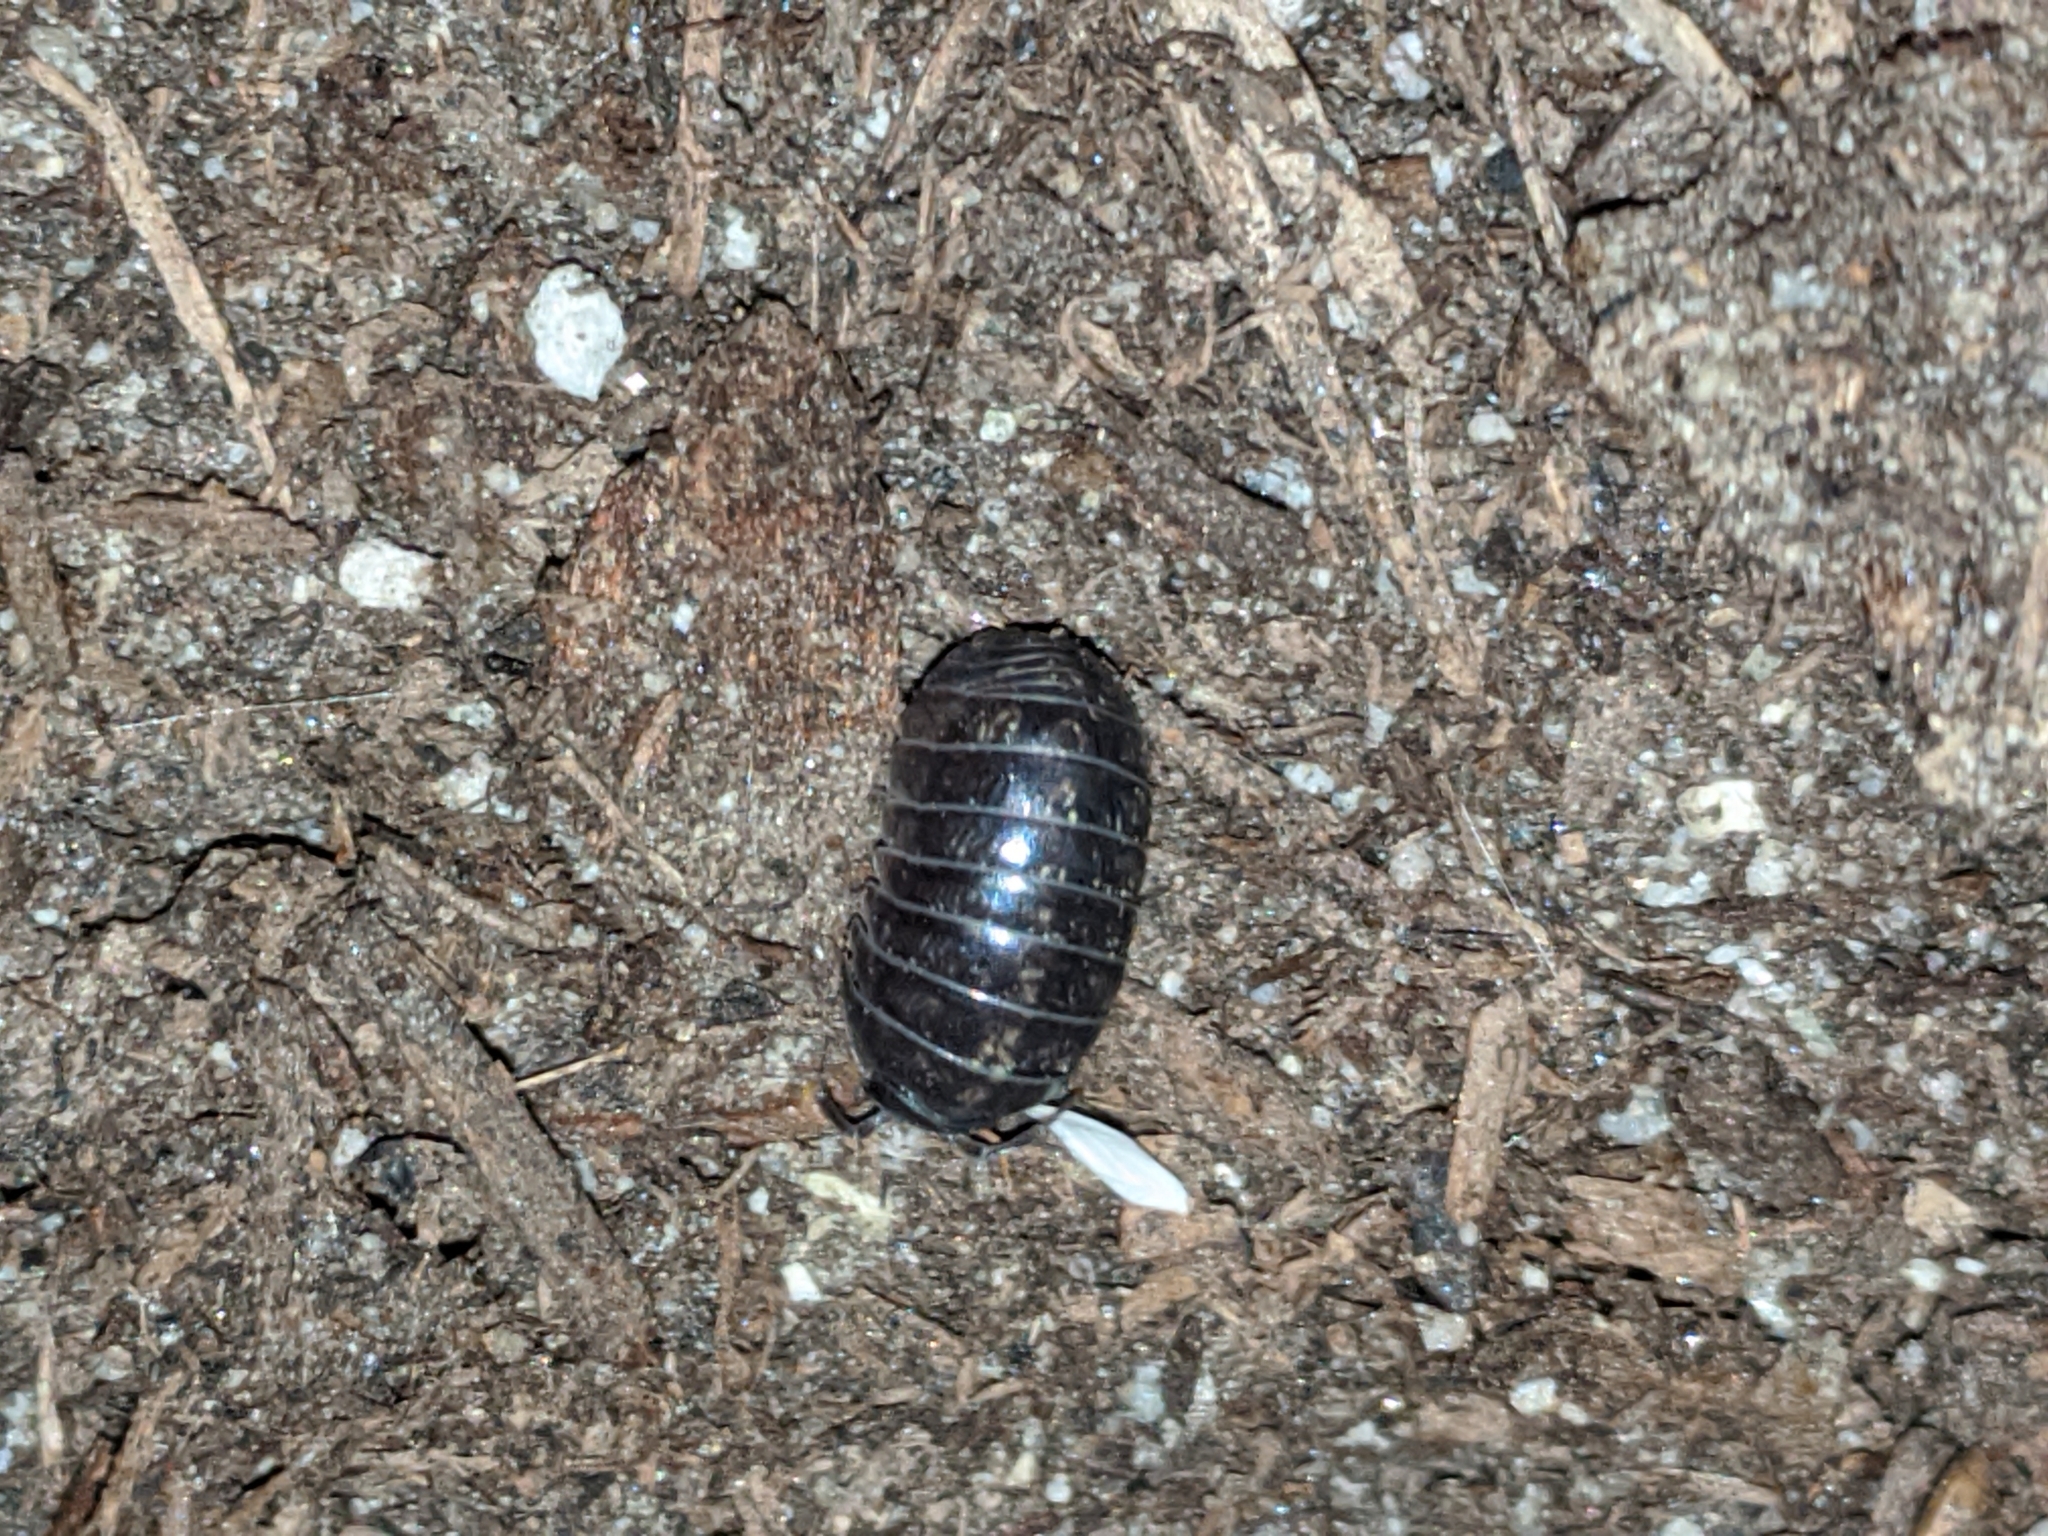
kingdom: Animalia
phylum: Arthropoda
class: Malacostraca
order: Isopoda
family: Armadillidiidae
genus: Armadillidium
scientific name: Armadillidium vulgare
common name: Common pill woodlouse
